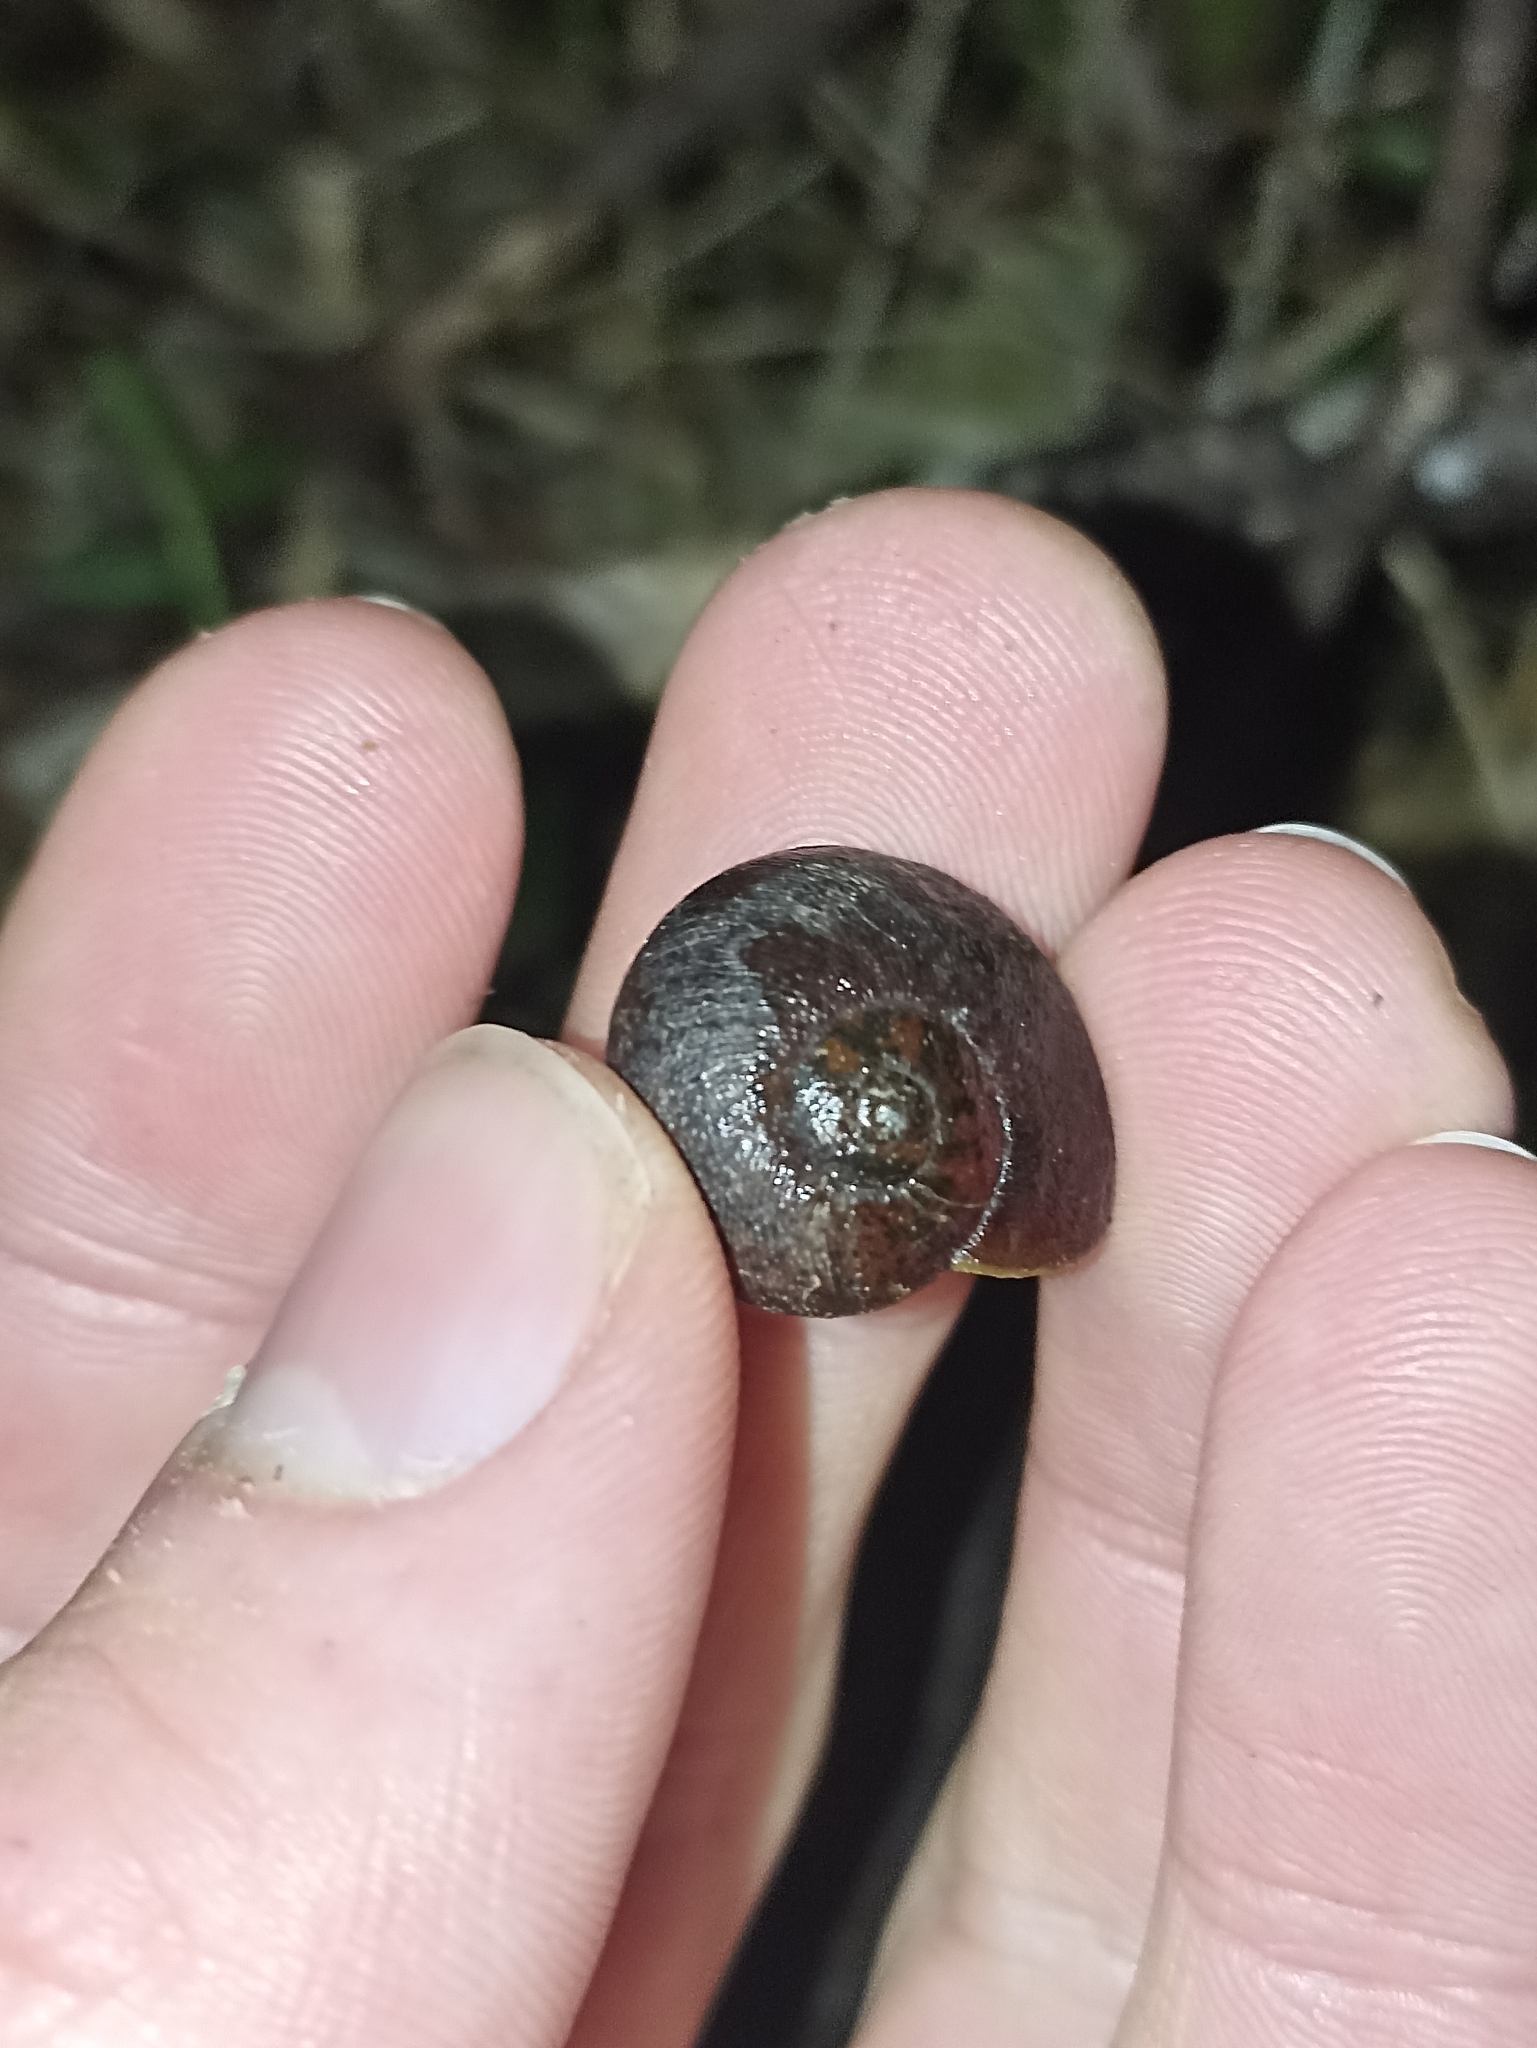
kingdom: Animalia
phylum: Mollusca
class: Gastropoda
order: Stylommatophora
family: Rhytididae
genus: Rhytida
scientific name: Rhytida greenwoodi
